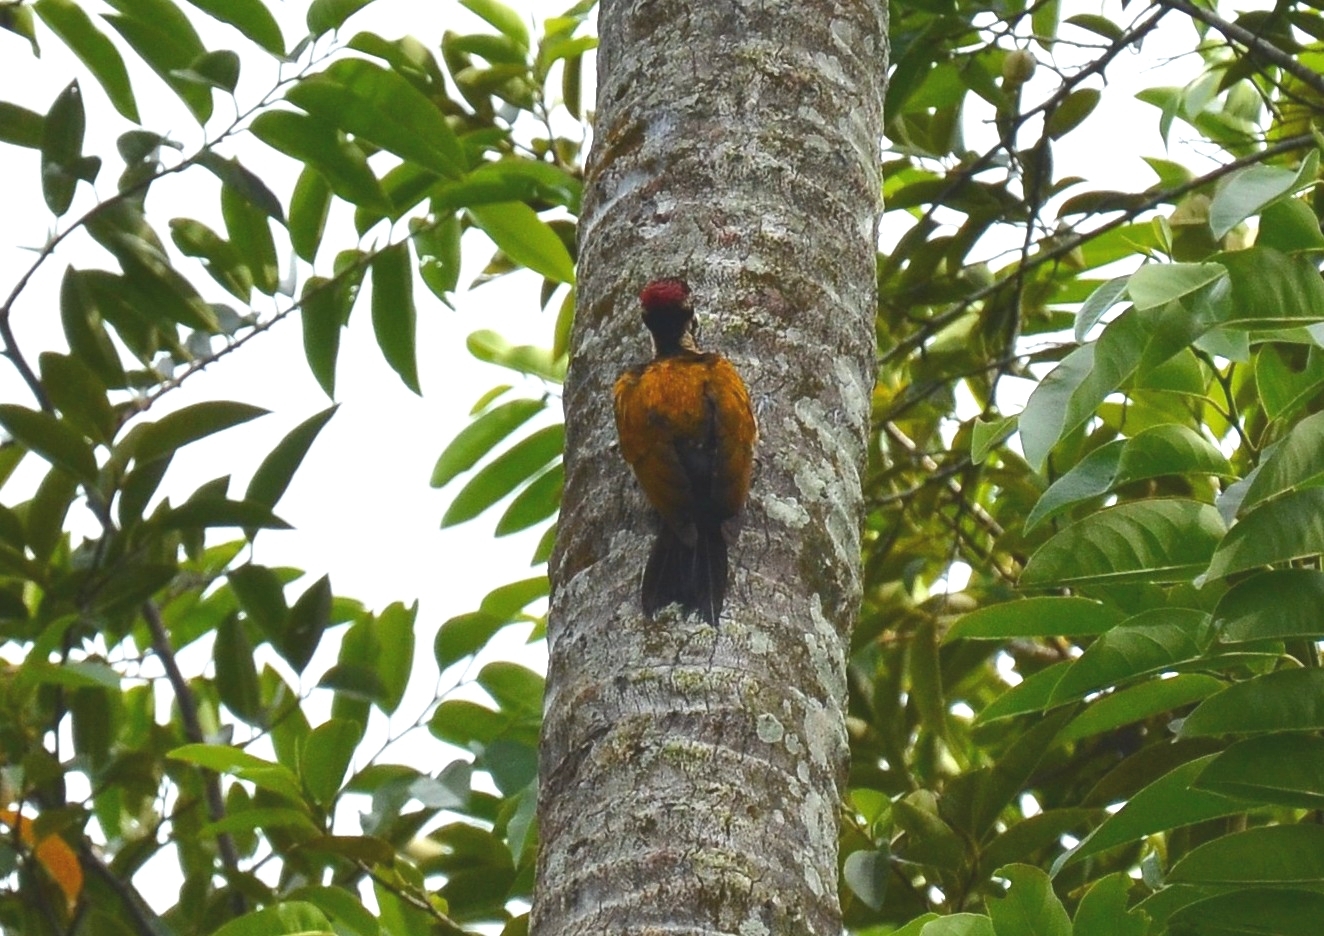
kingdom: Animalia
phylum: Chordata
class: Aves
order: Piciformes
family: Picidae
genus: Dinopium
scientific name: Dinopium benghalense
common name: Black-rumped flameback
